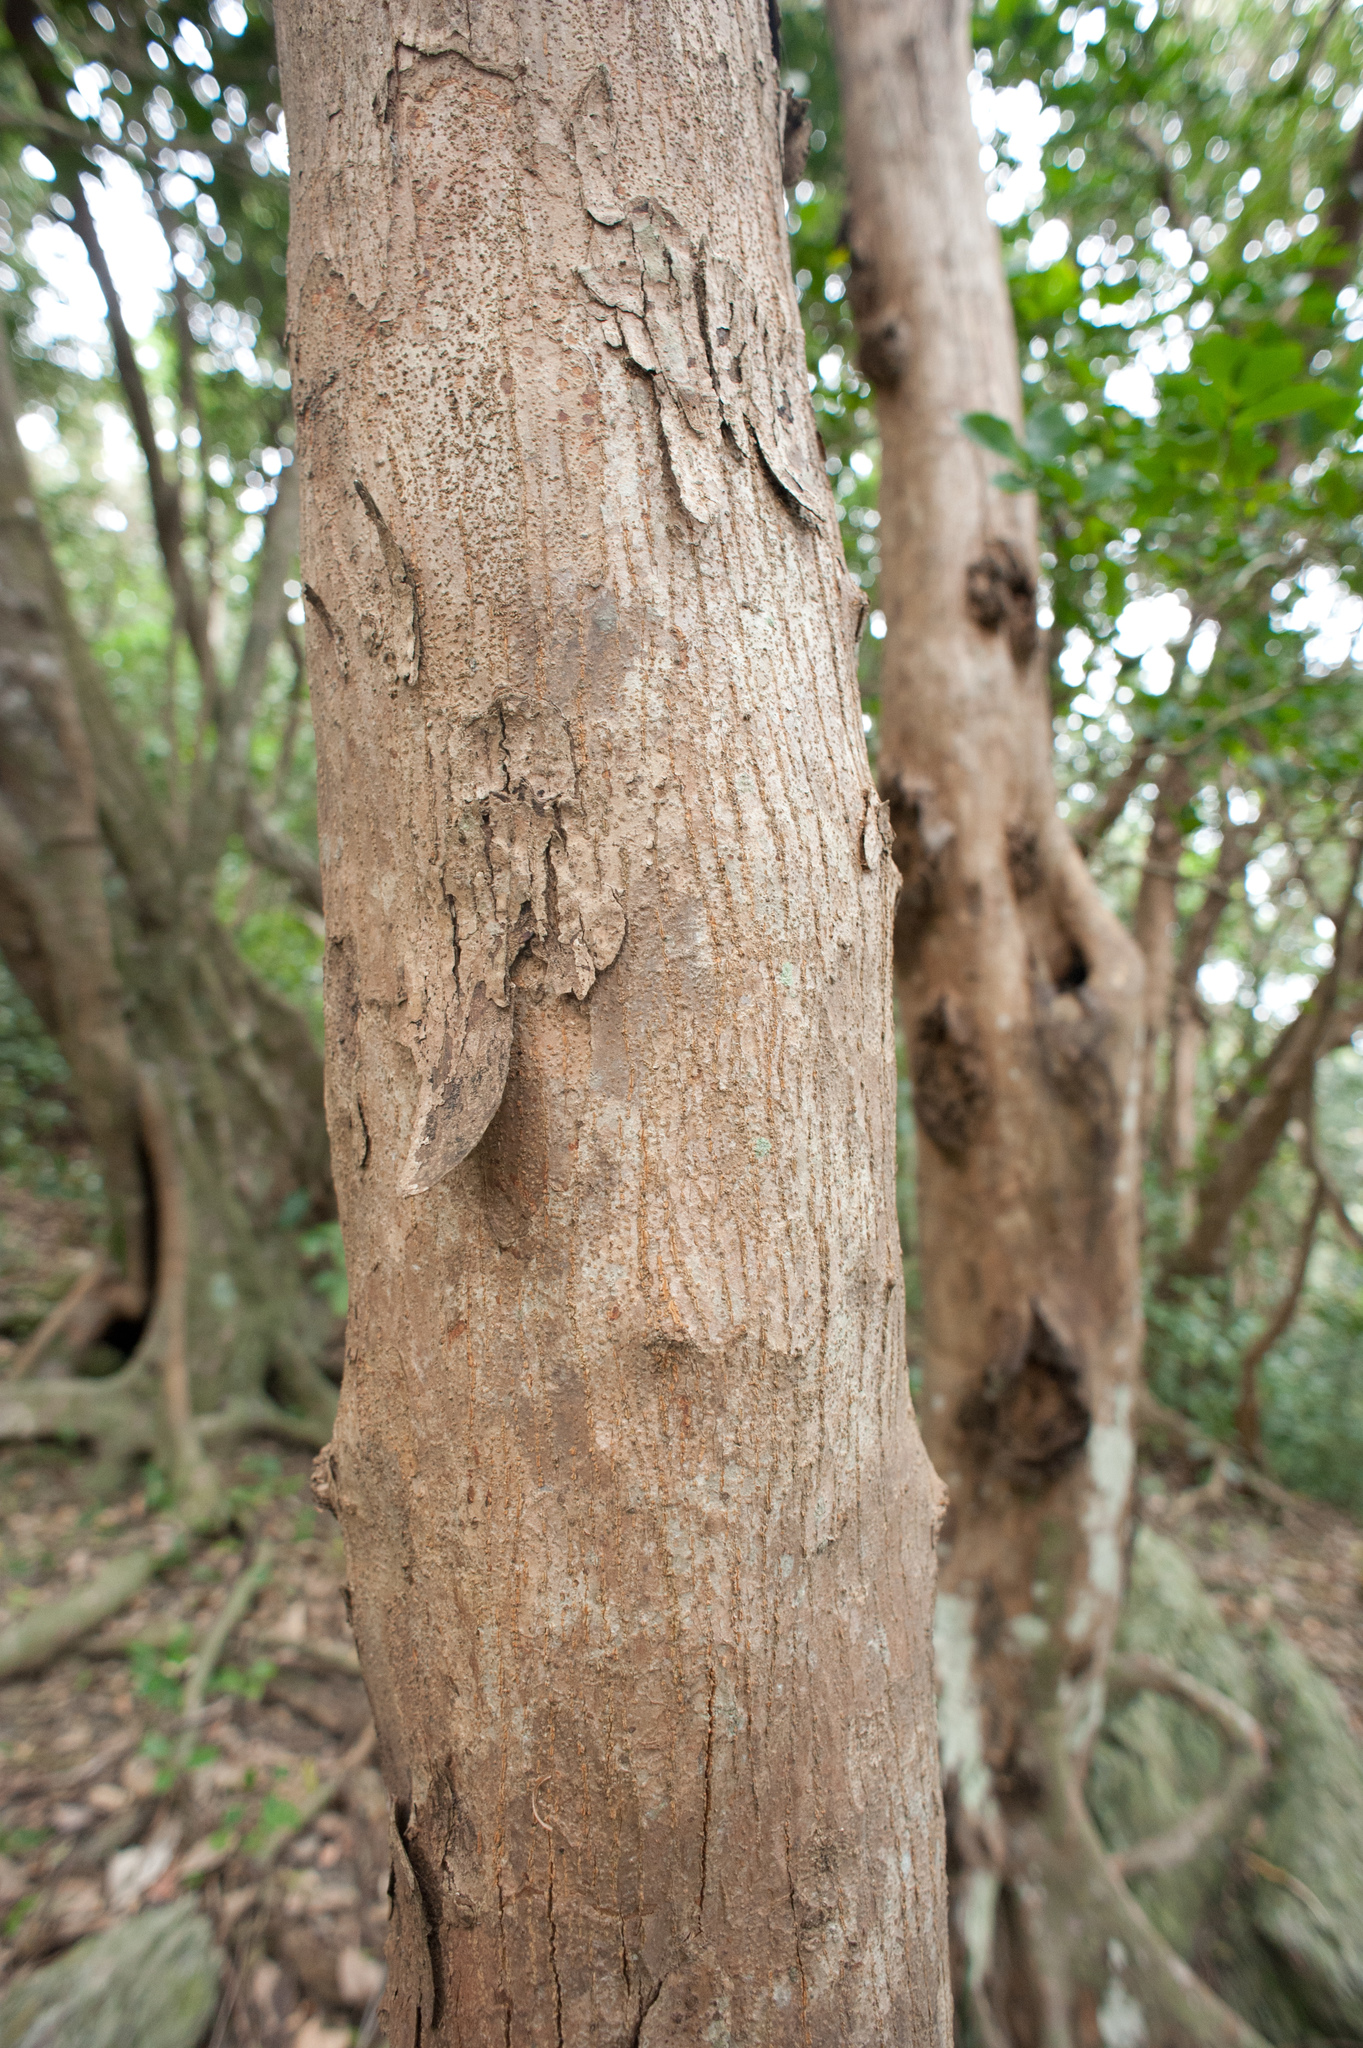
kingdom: Plantae
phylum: Tracheophyta
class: Magnoliopsida
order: Sapindales
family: Meliaceae
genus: Aglaia
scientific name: Aglaia elaeagnoidea
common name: Droopyleaf
